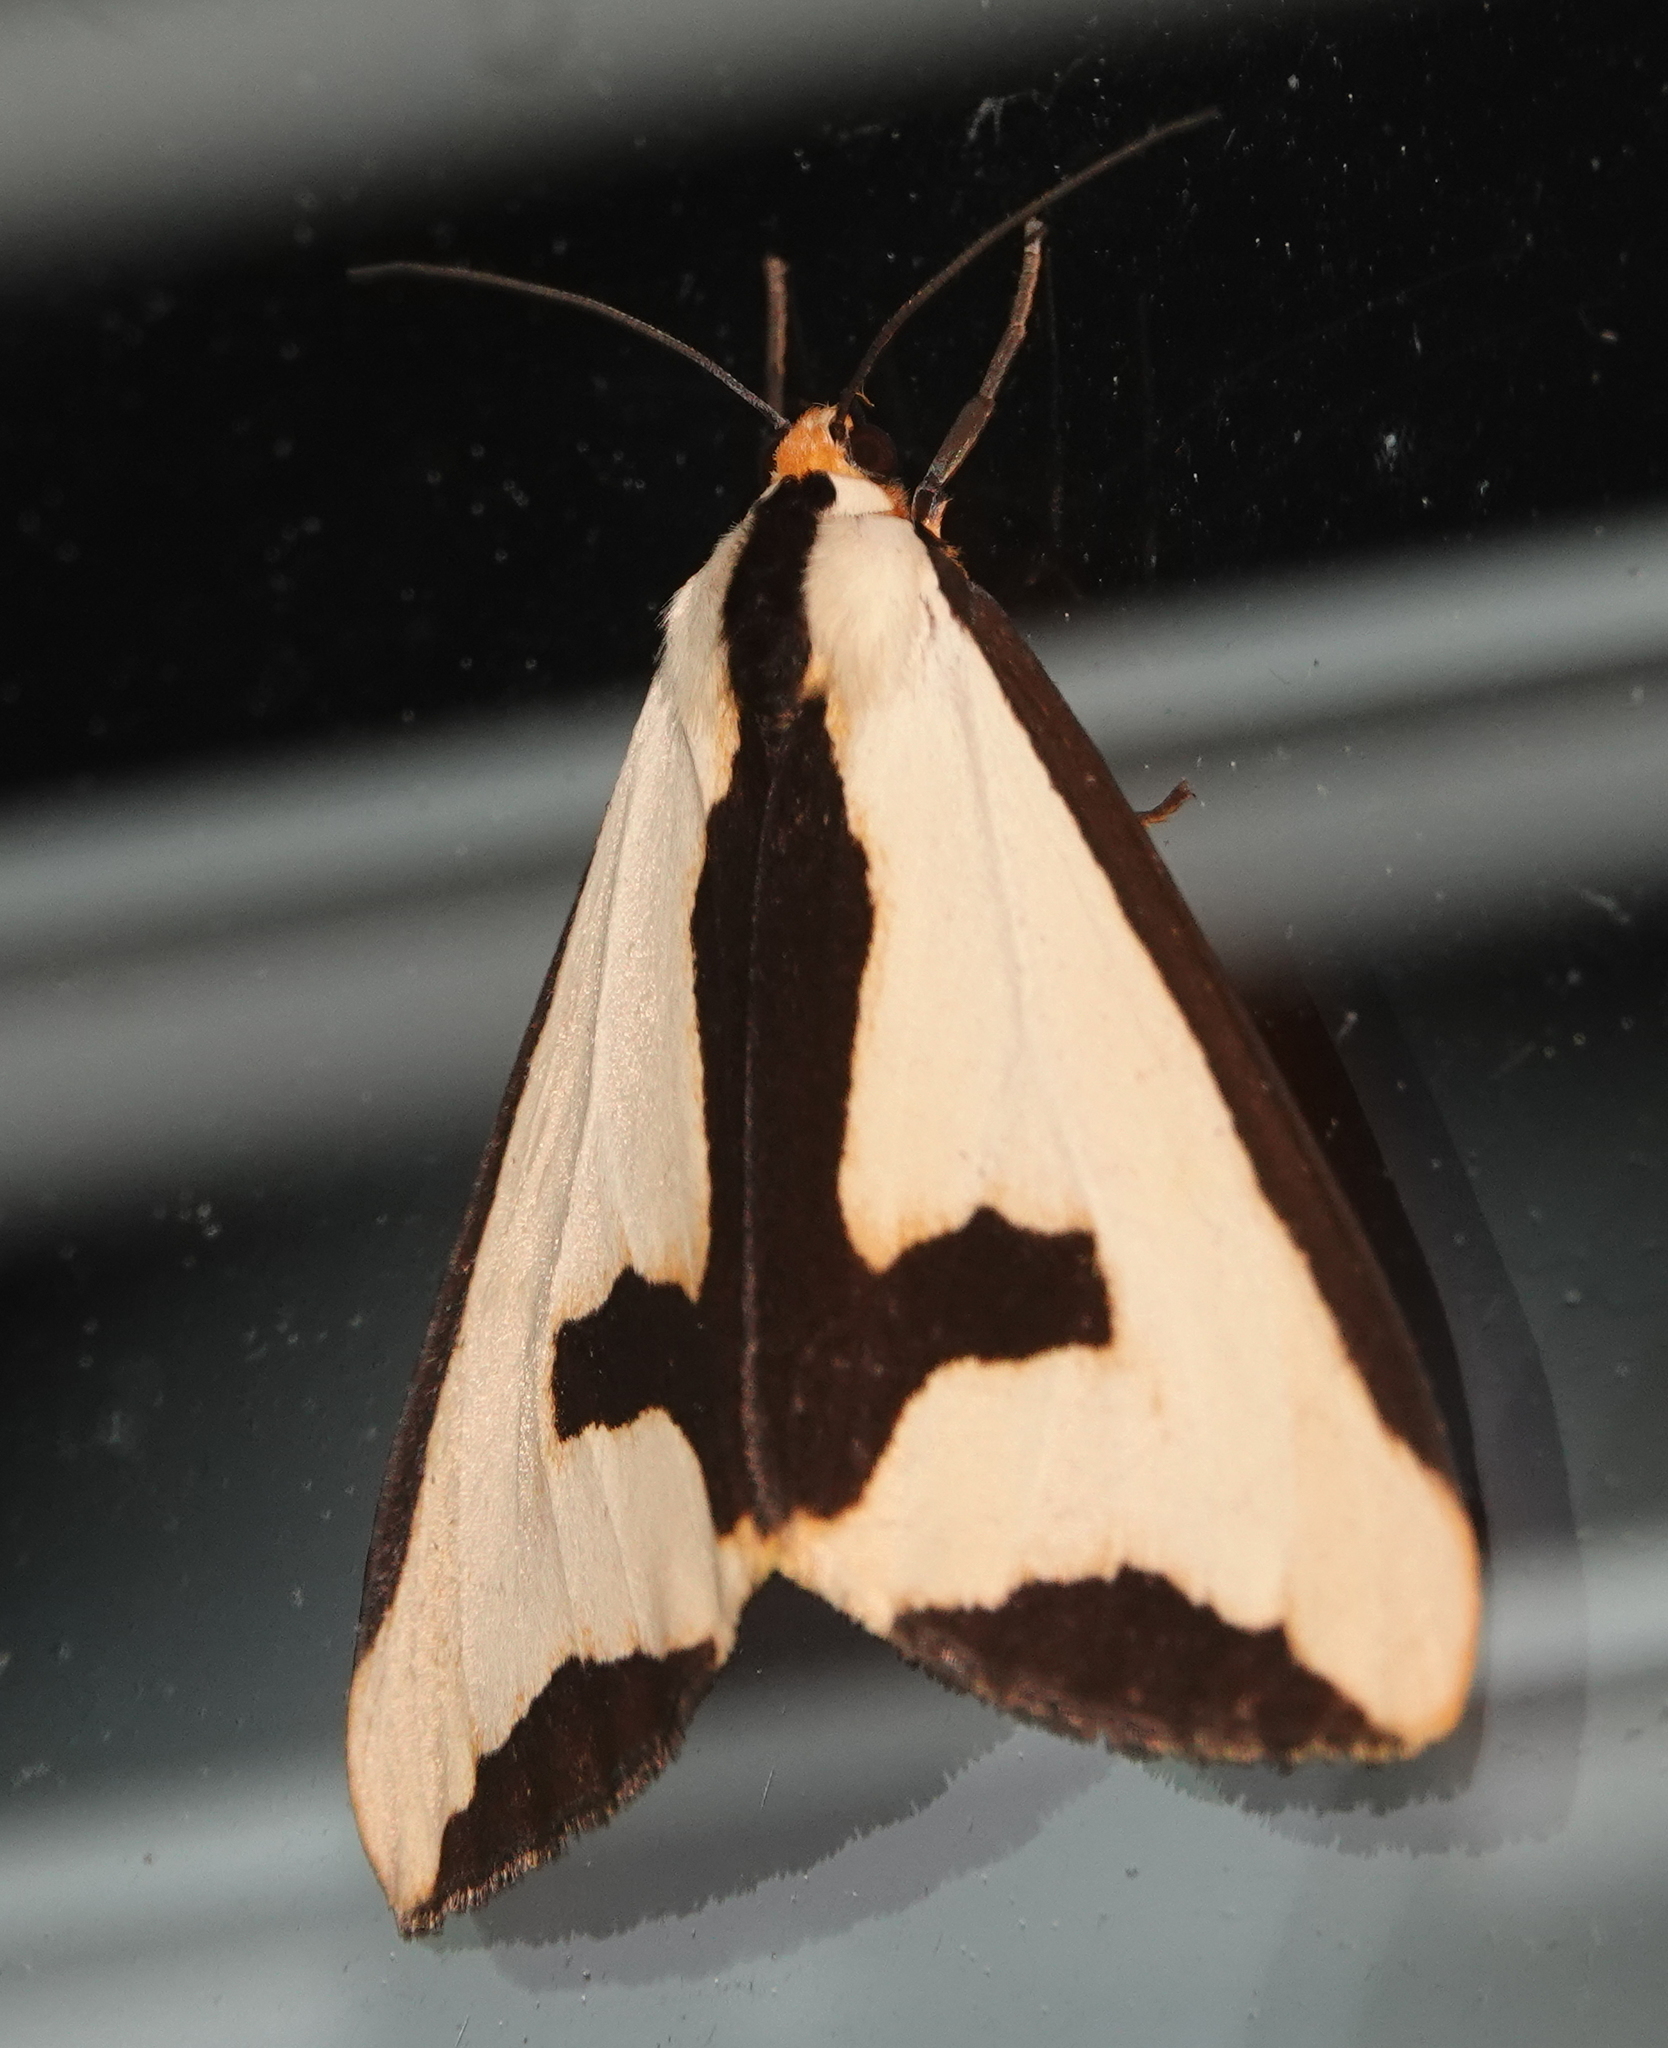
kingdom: Animalia
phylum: Arthropoda
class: Insecta
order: Lepidoptera
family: Erebidae
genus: Haploa
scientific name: Haploa clymene
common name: Clymene moth
